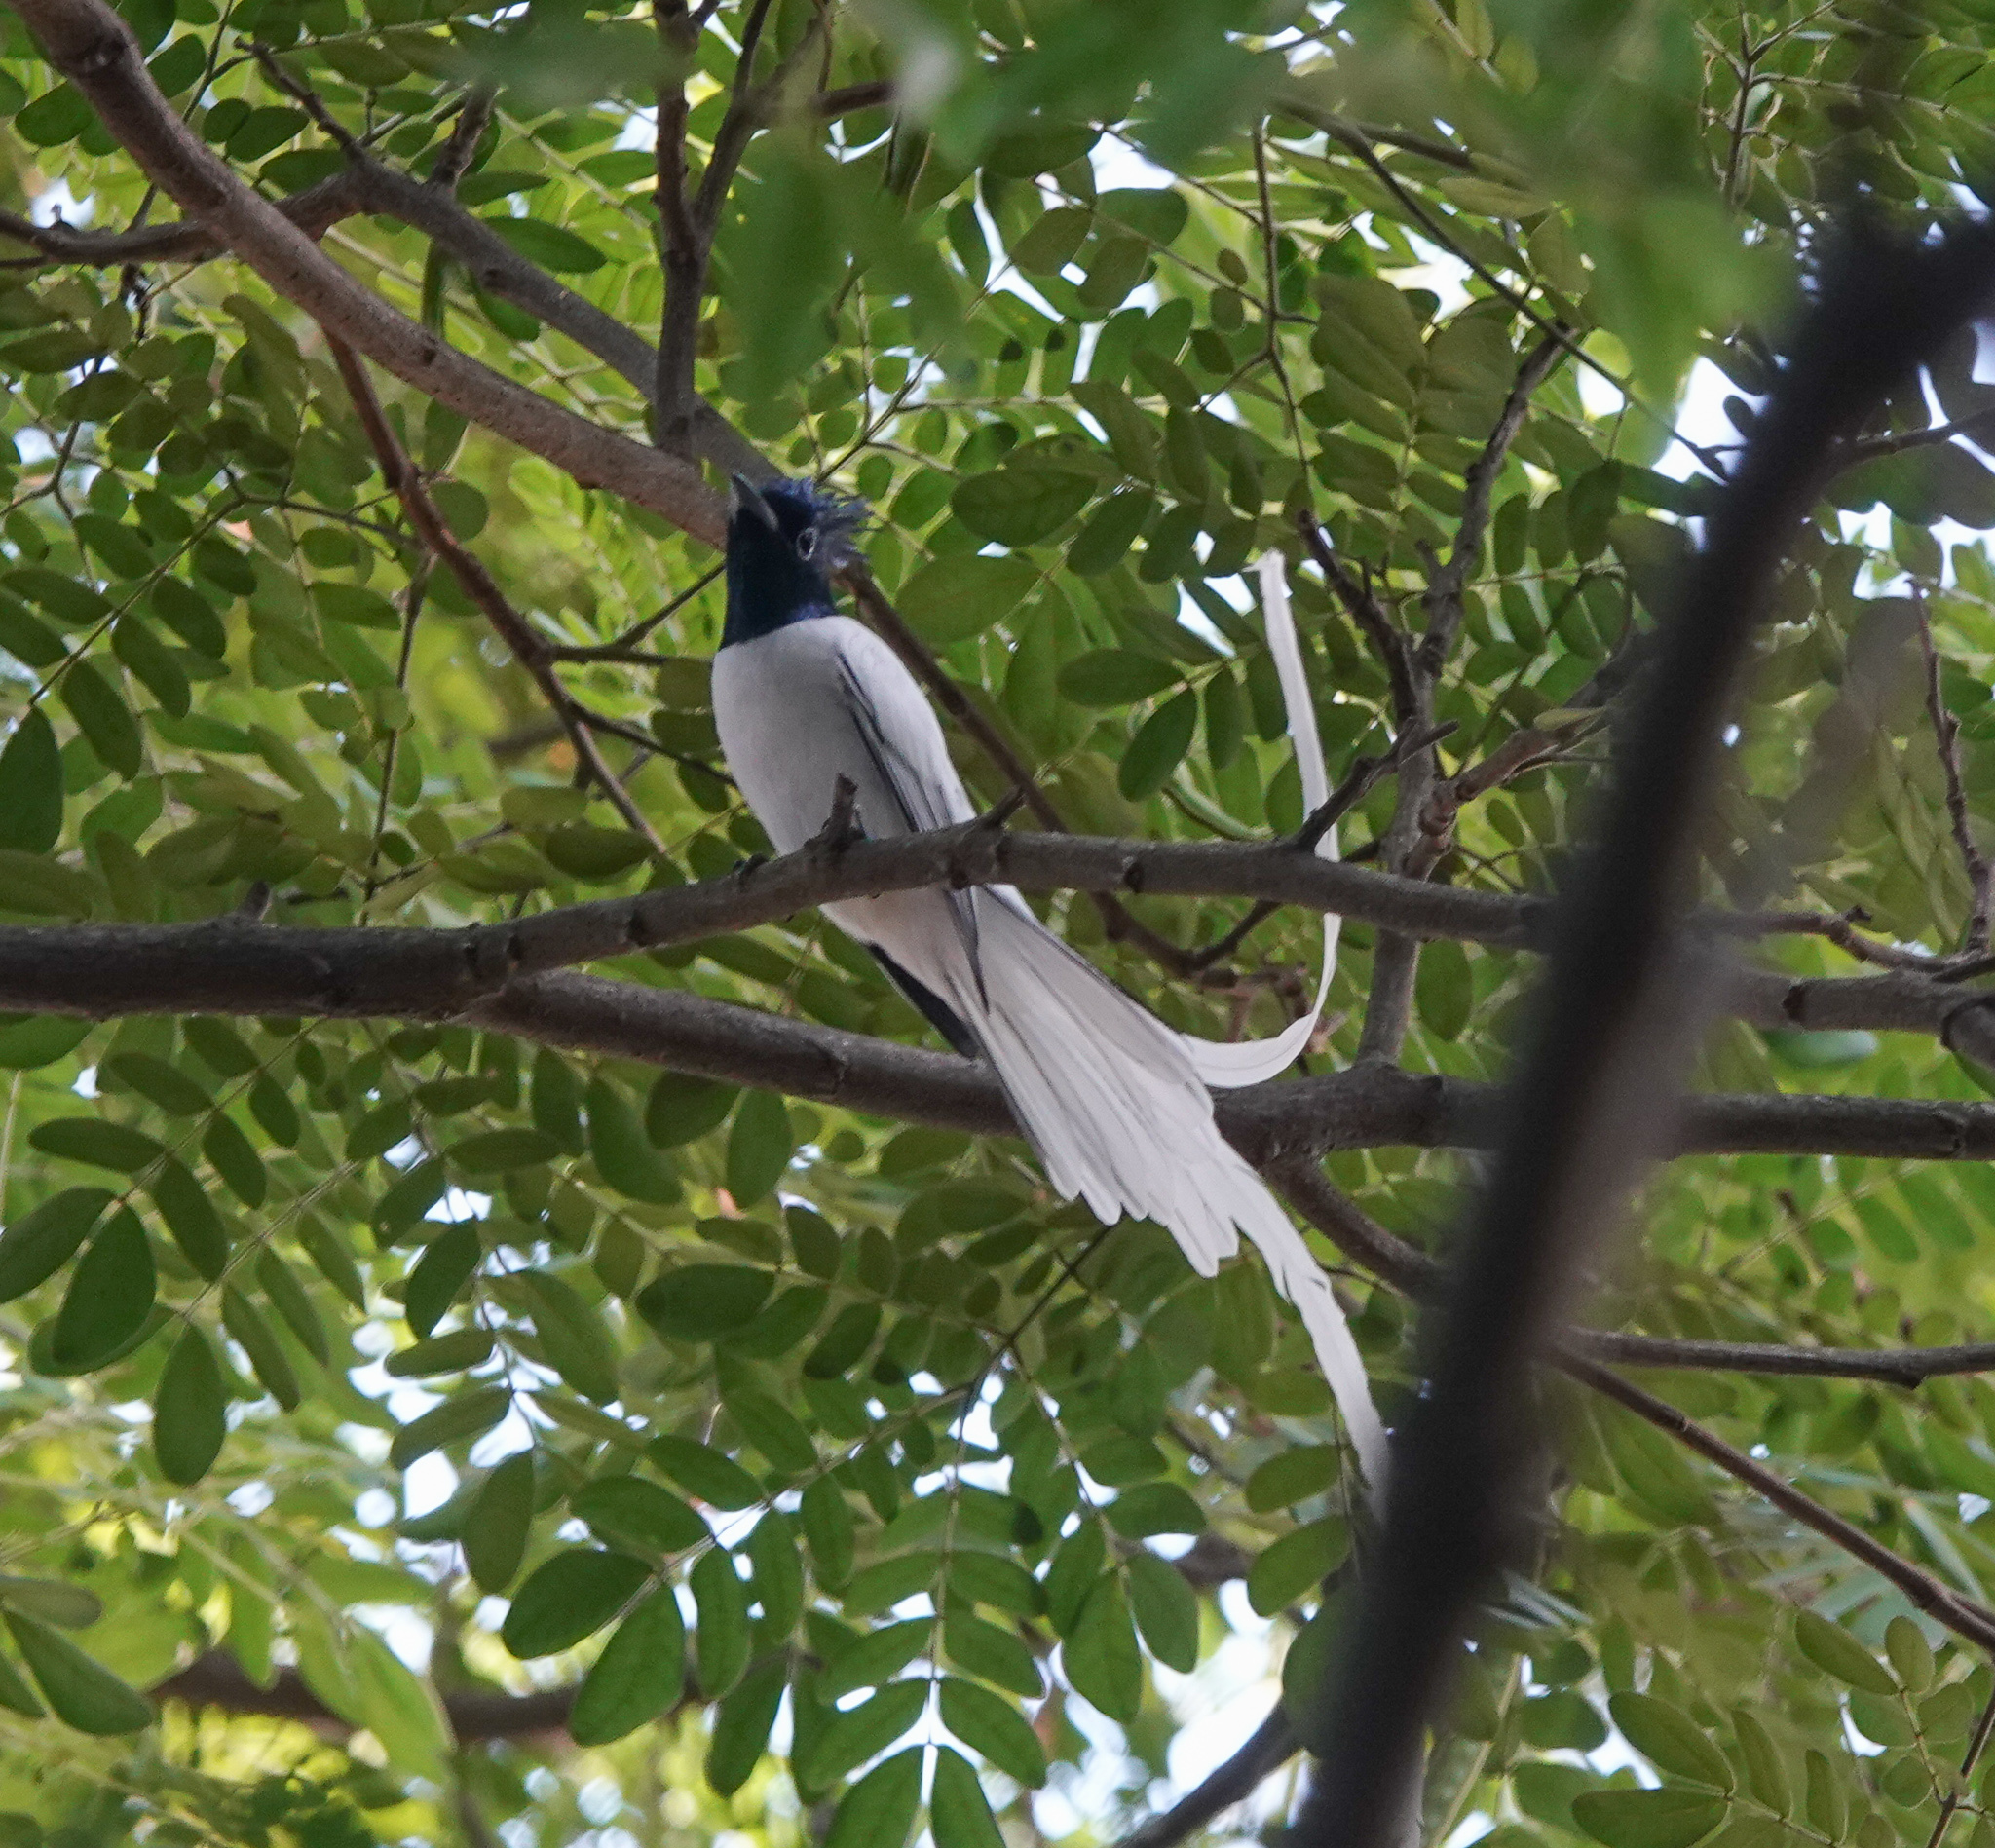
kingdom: Animalia
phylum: Chordata
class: Aves
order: Passeriformes
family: Monarchidae
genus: Terpsiphone
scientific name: Terpsiphone paradisi
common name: Indian paradise flycatcher
